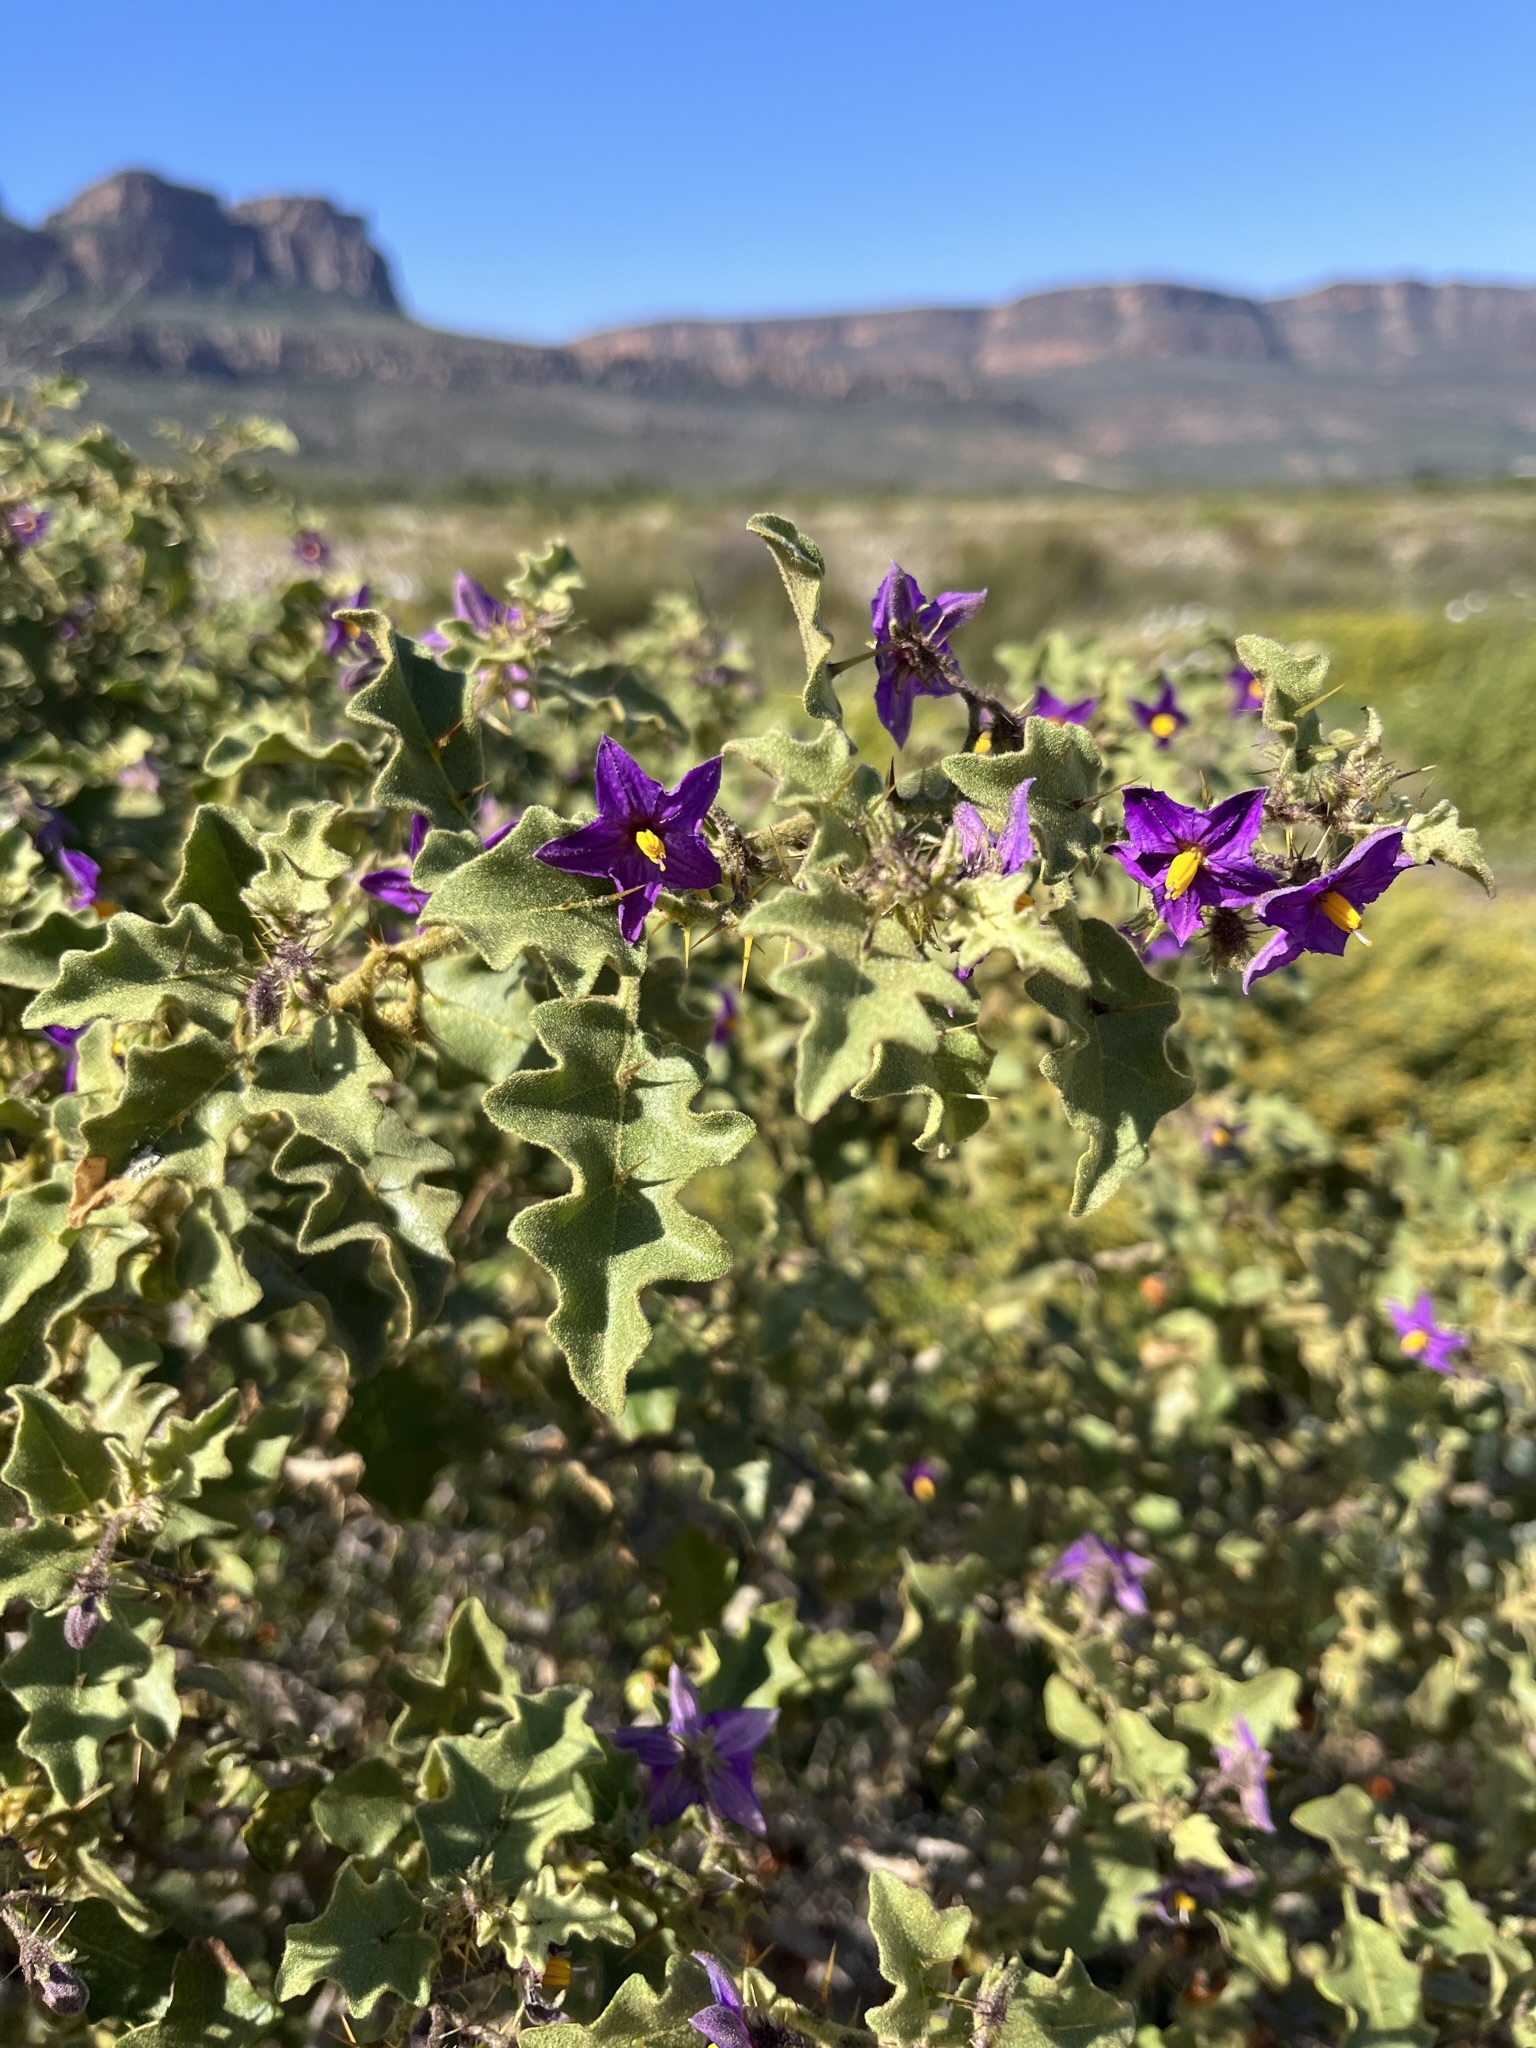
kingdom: Plantae
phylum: Tracheophyta
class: Magnoliopsida
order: Solanales
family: Solanaceae
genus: Solanum
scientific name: Solanum humile
